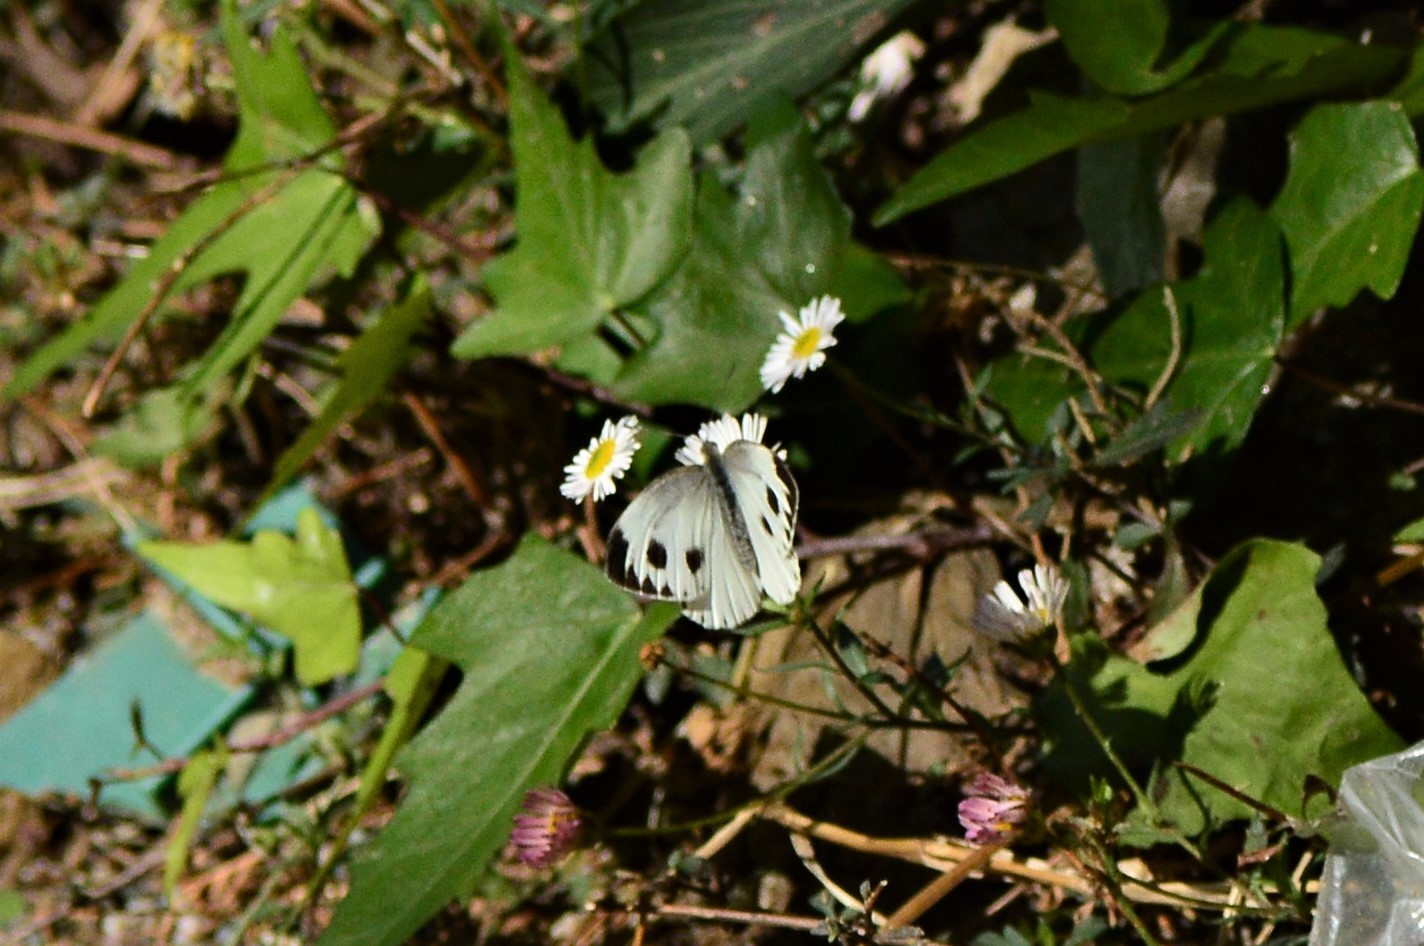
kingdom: Animalia
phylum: Arthropoda
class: Insecta
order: Lepidoptera
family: Pieridae
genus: Pieris
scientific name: Pieris canidia
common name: Indian cabbage white
